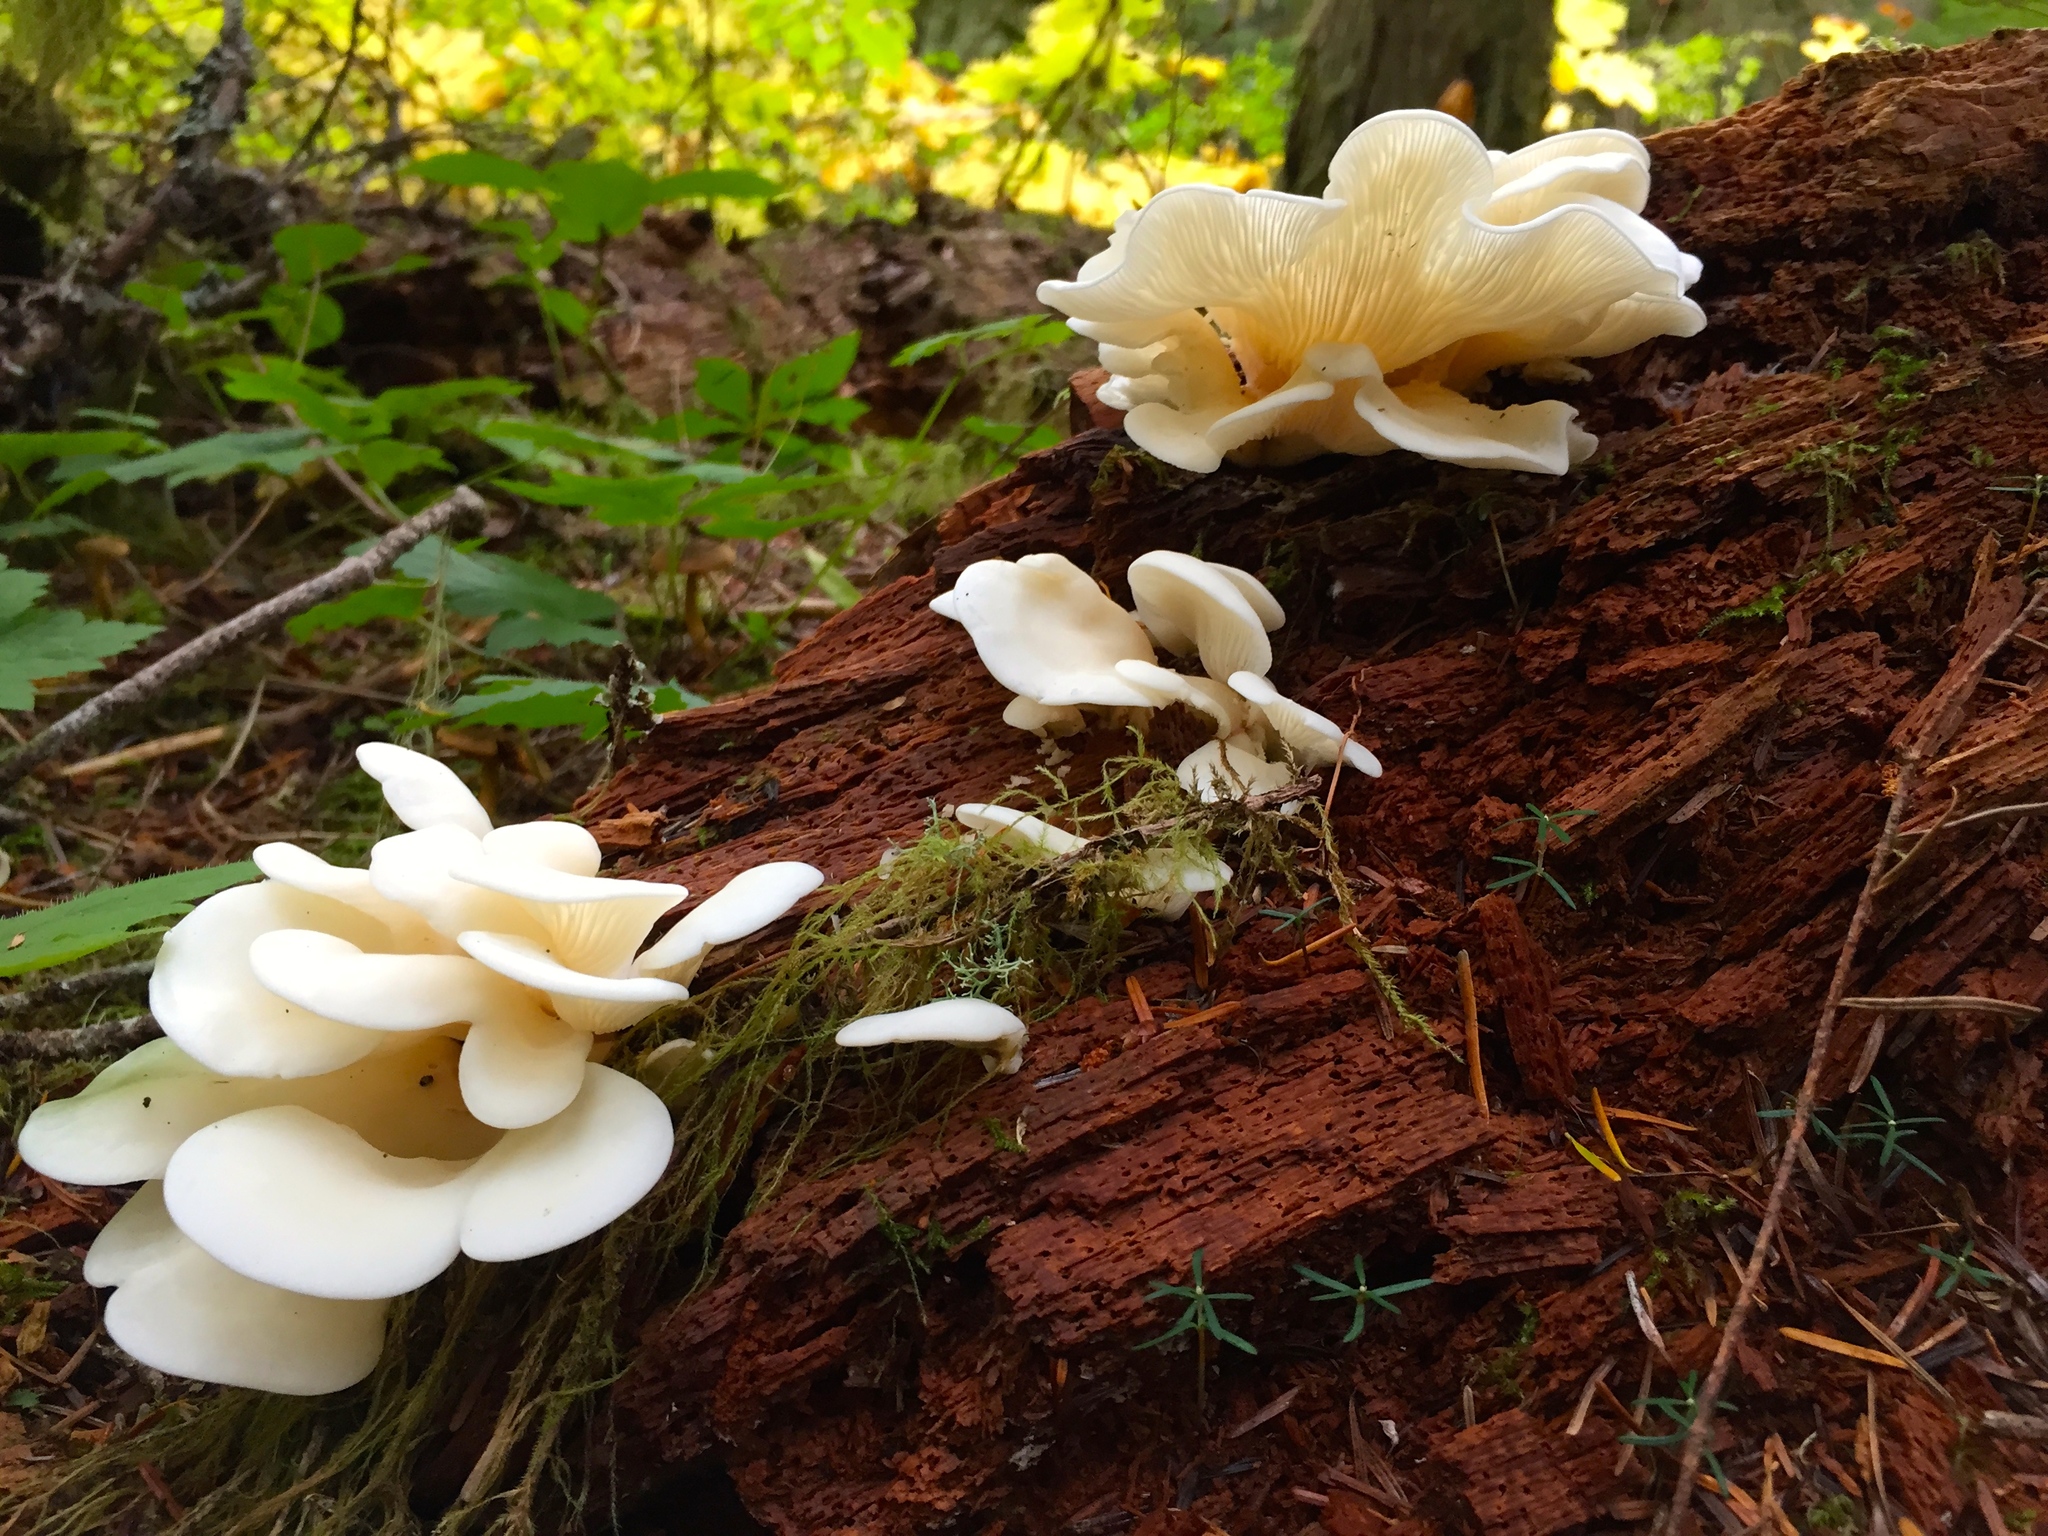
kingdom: Fungi
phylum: Basidiomycota
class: Agaricomycetes
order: Agaricales
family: Pleurotaceae
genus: Pleurotus
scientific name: Pleurotus ostreatus
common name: Oyster mushroom
